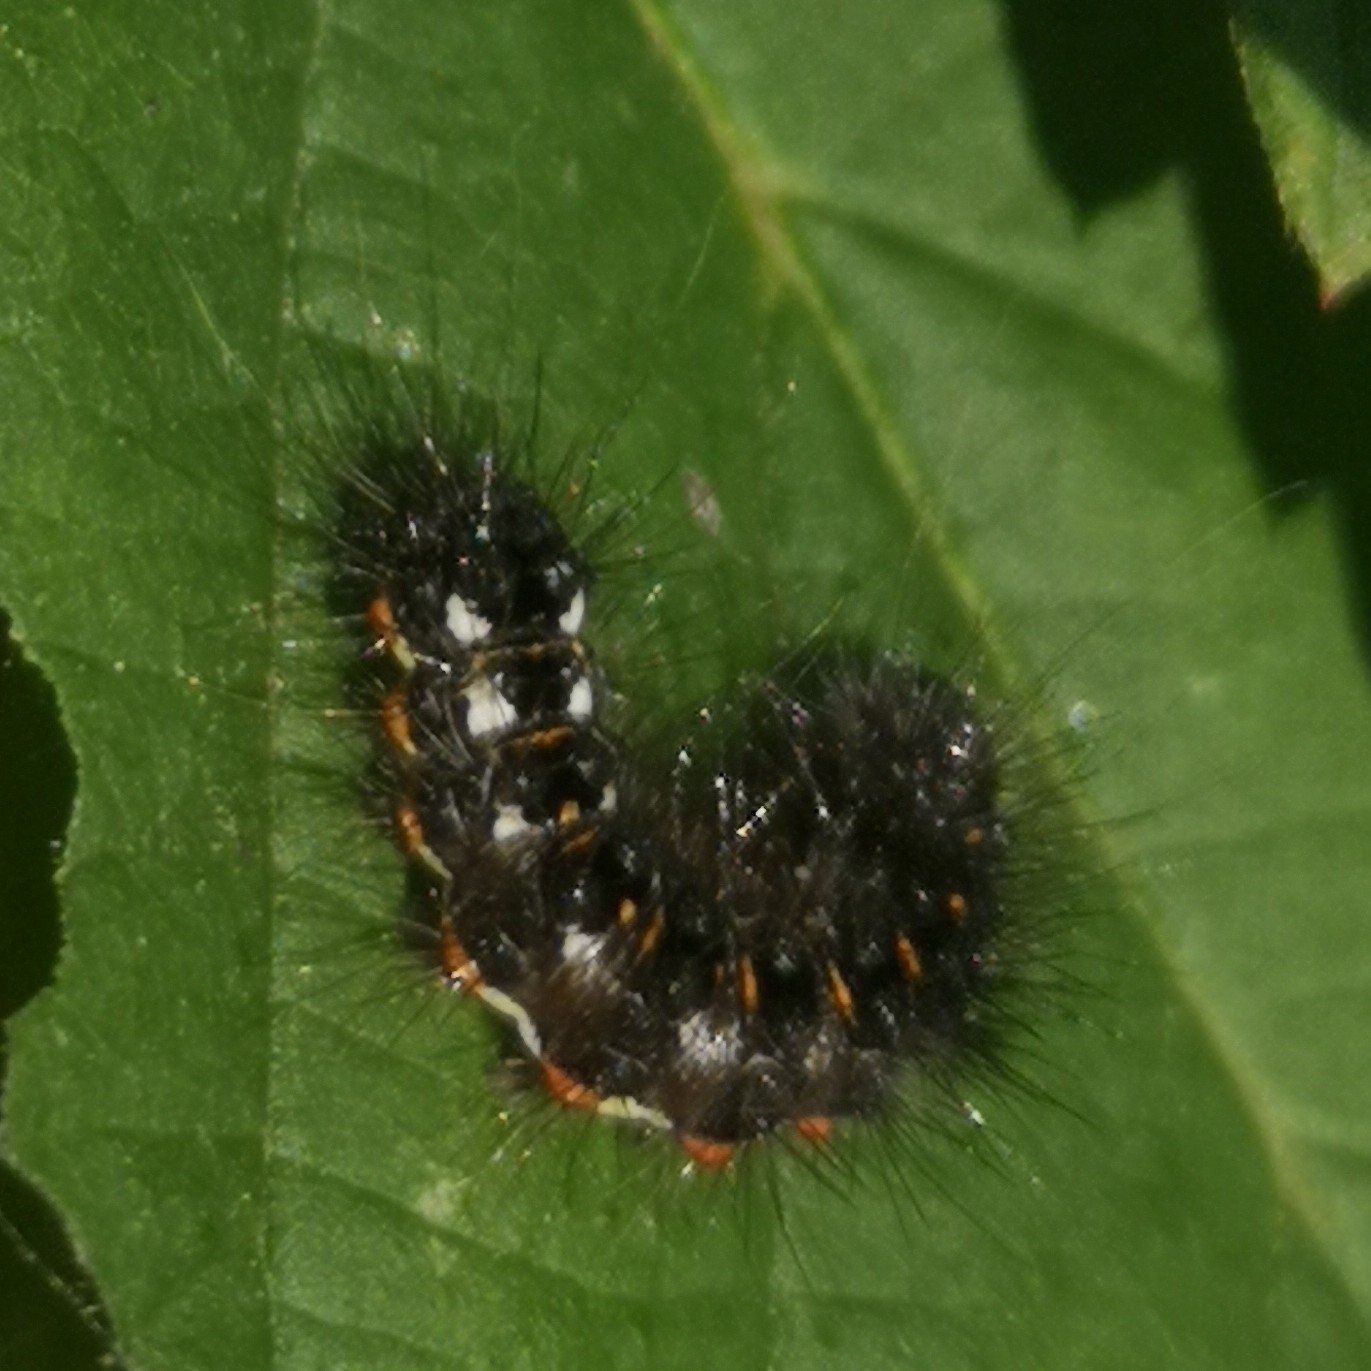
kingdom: Animalia
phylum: Arthropoda
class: Insecta
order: Lepidoptera
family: Noctuidae
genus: Acronicta
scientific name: Acronicta rumicis
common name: Knot grass
